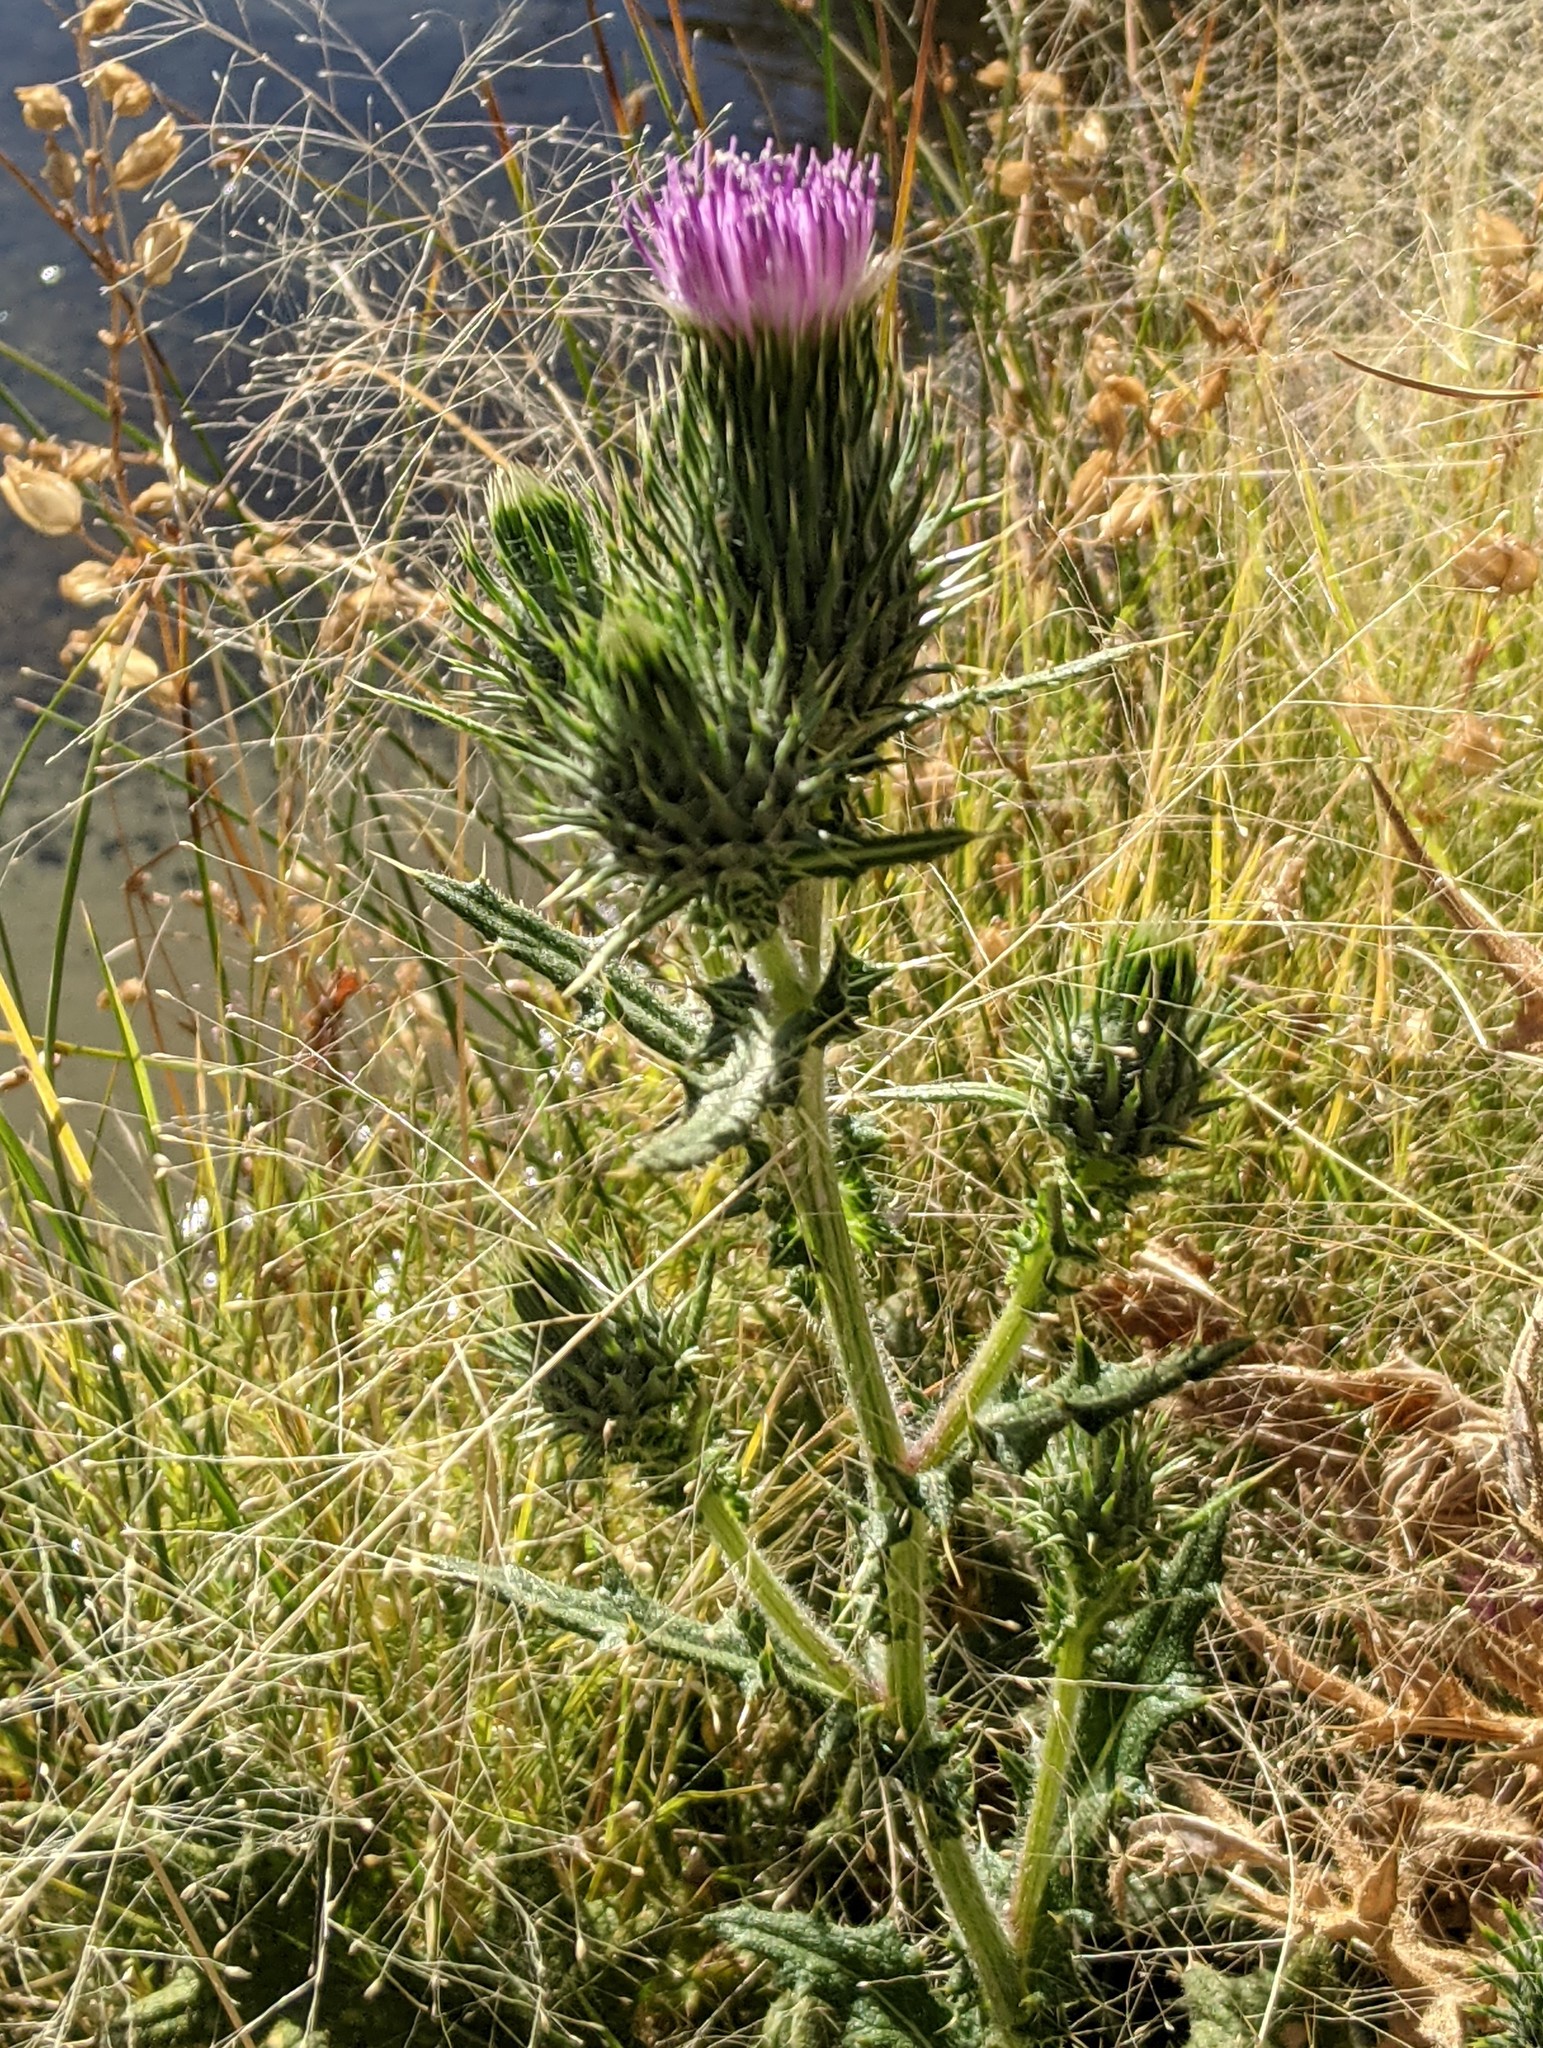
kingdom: Plantae
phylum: Tracheophyta
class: Magnoliopsida
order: Asterales
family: Asteraceae
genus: Cirsium
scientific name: Cirsium vulgare
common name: Bull thistle
